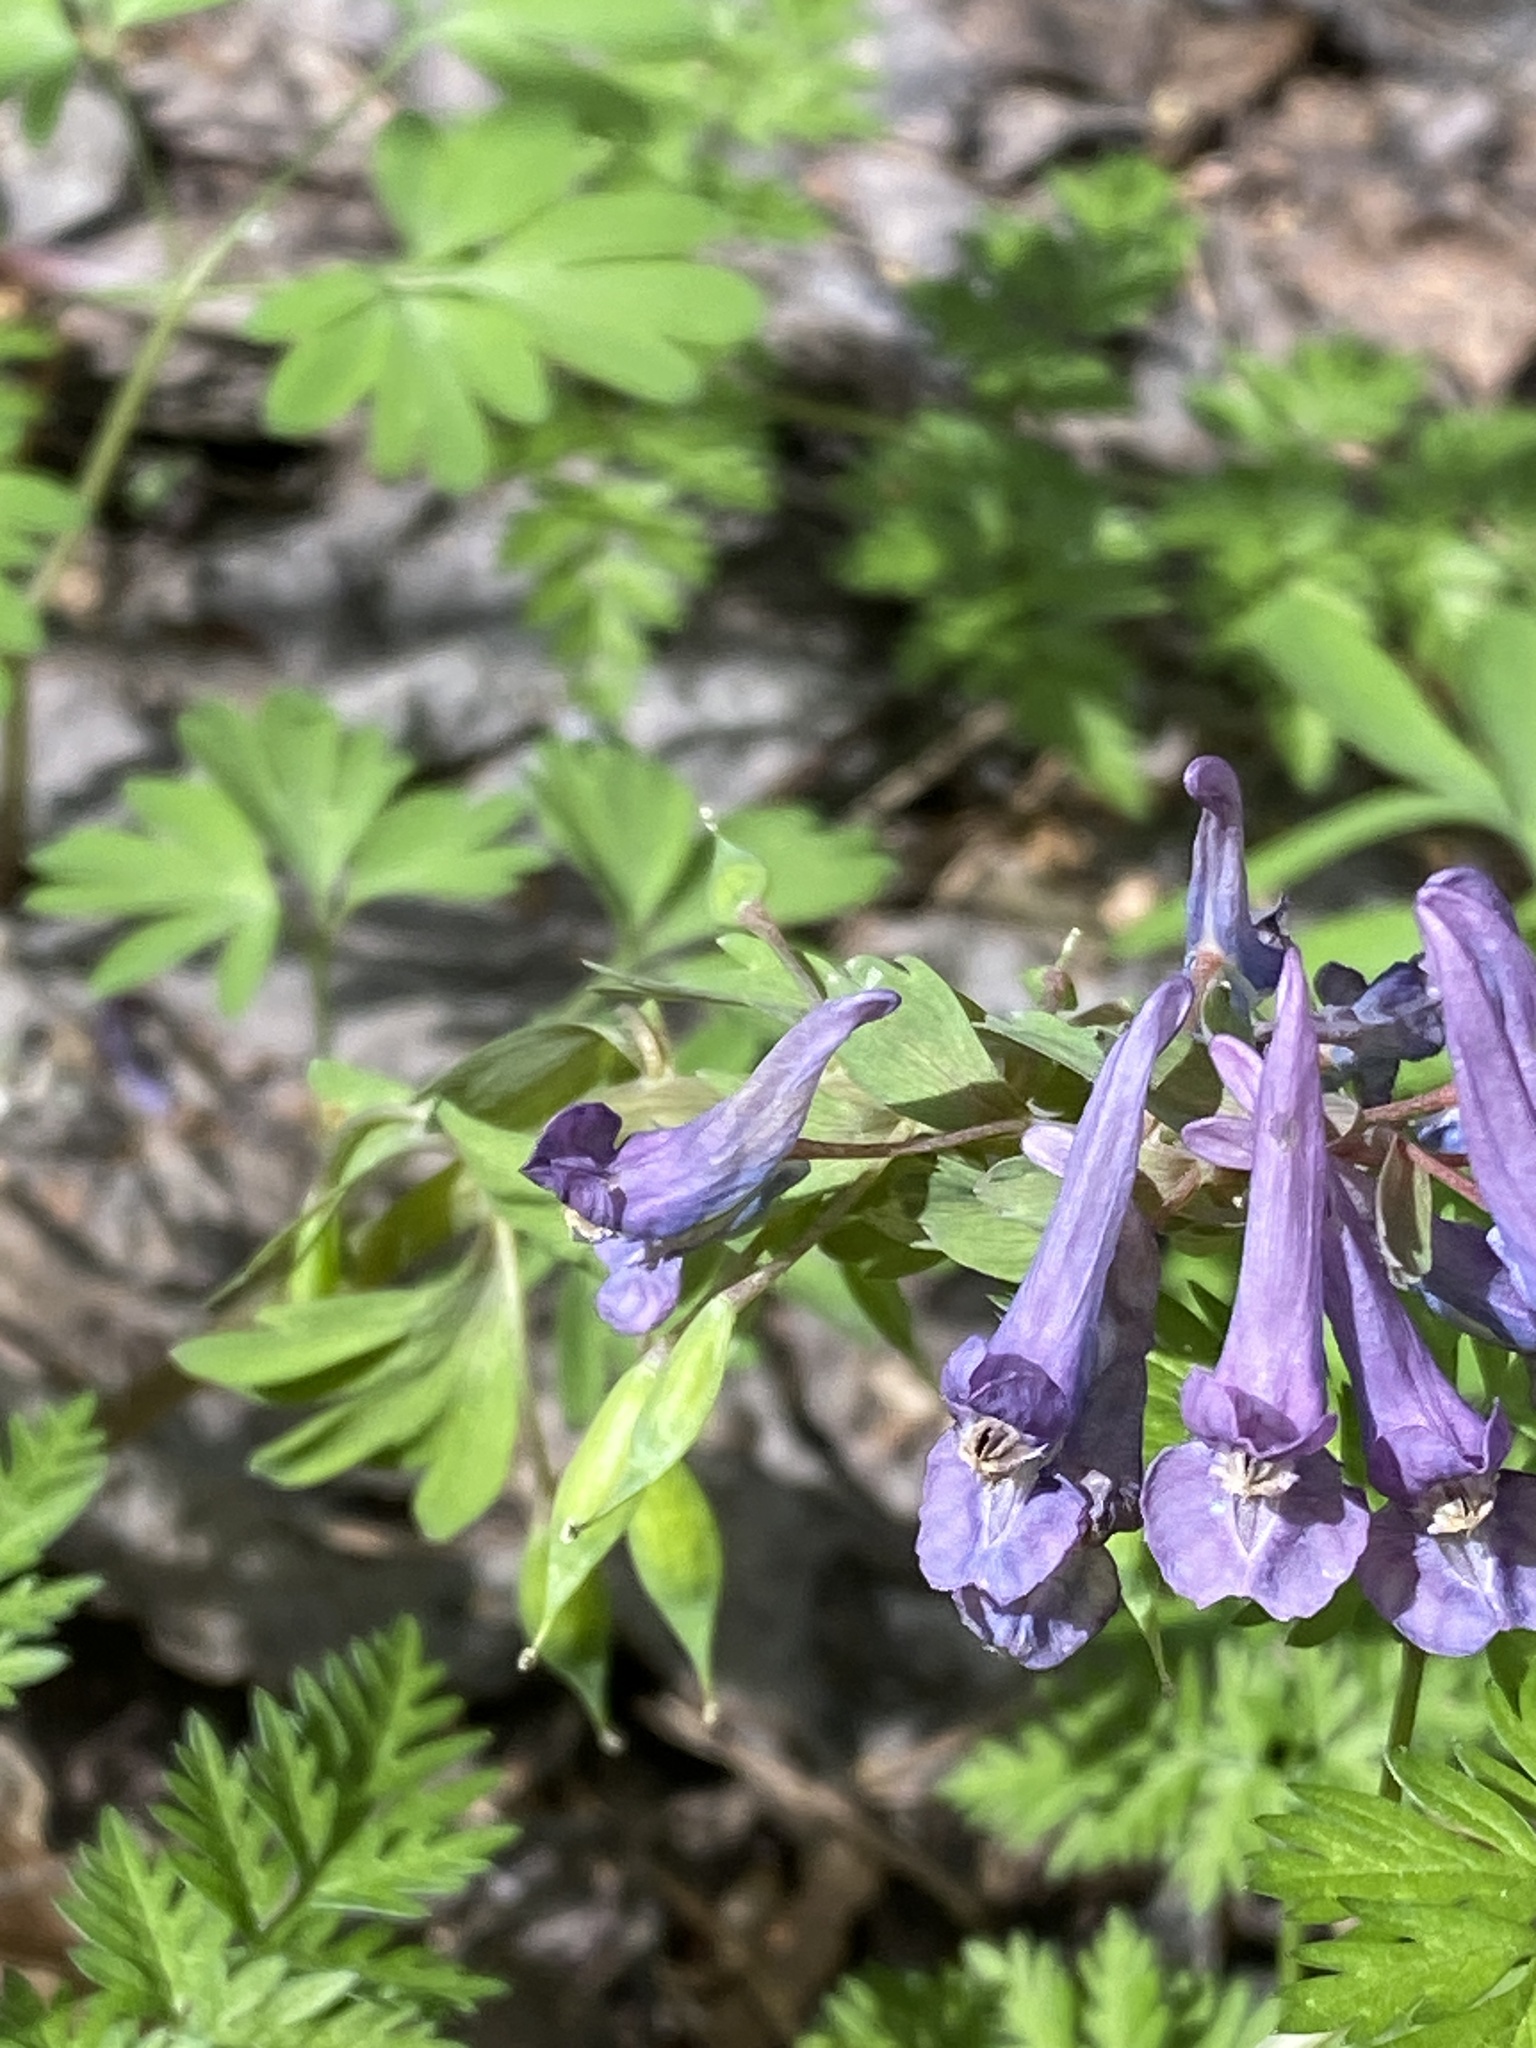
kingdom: Plantae
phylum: Tracheophyta
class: Magnoliopsida
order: Ranunculales
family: Papaveraceae
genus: Corydalis
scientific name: Corydalis solida
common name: Bird-in-a-bush
